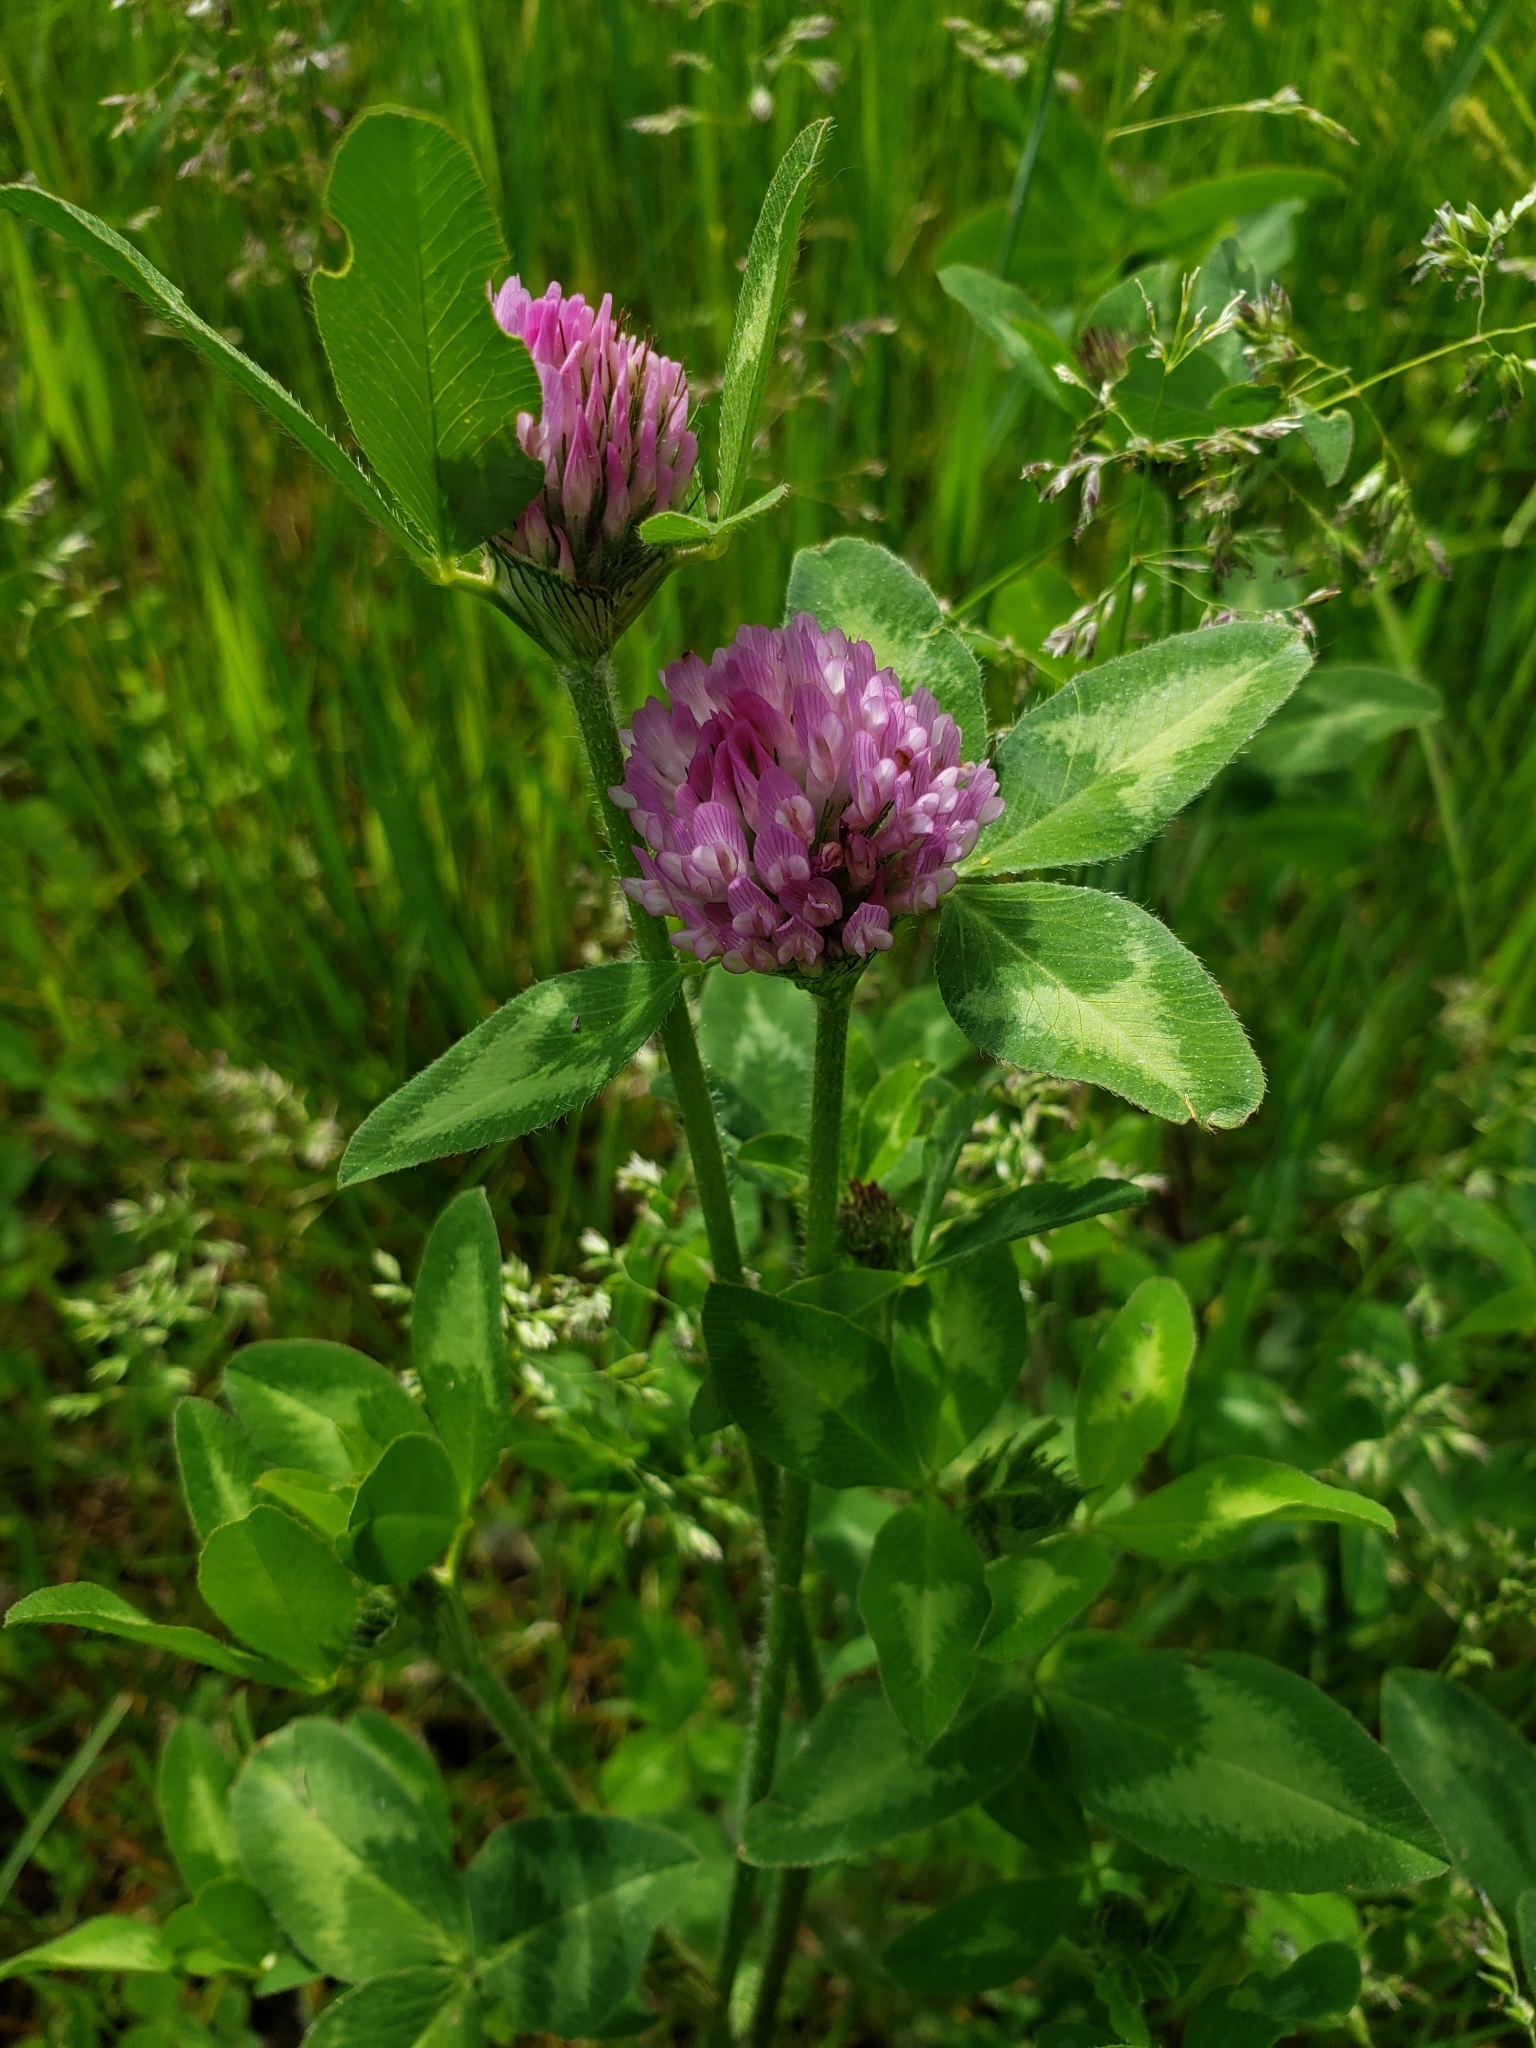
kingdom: Plantae
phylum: Tracheophyta
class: Magnoliopsida
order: Fabales
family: Fabaceae
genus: Trifolium
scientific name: Trifolium pratense
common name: Red clover
